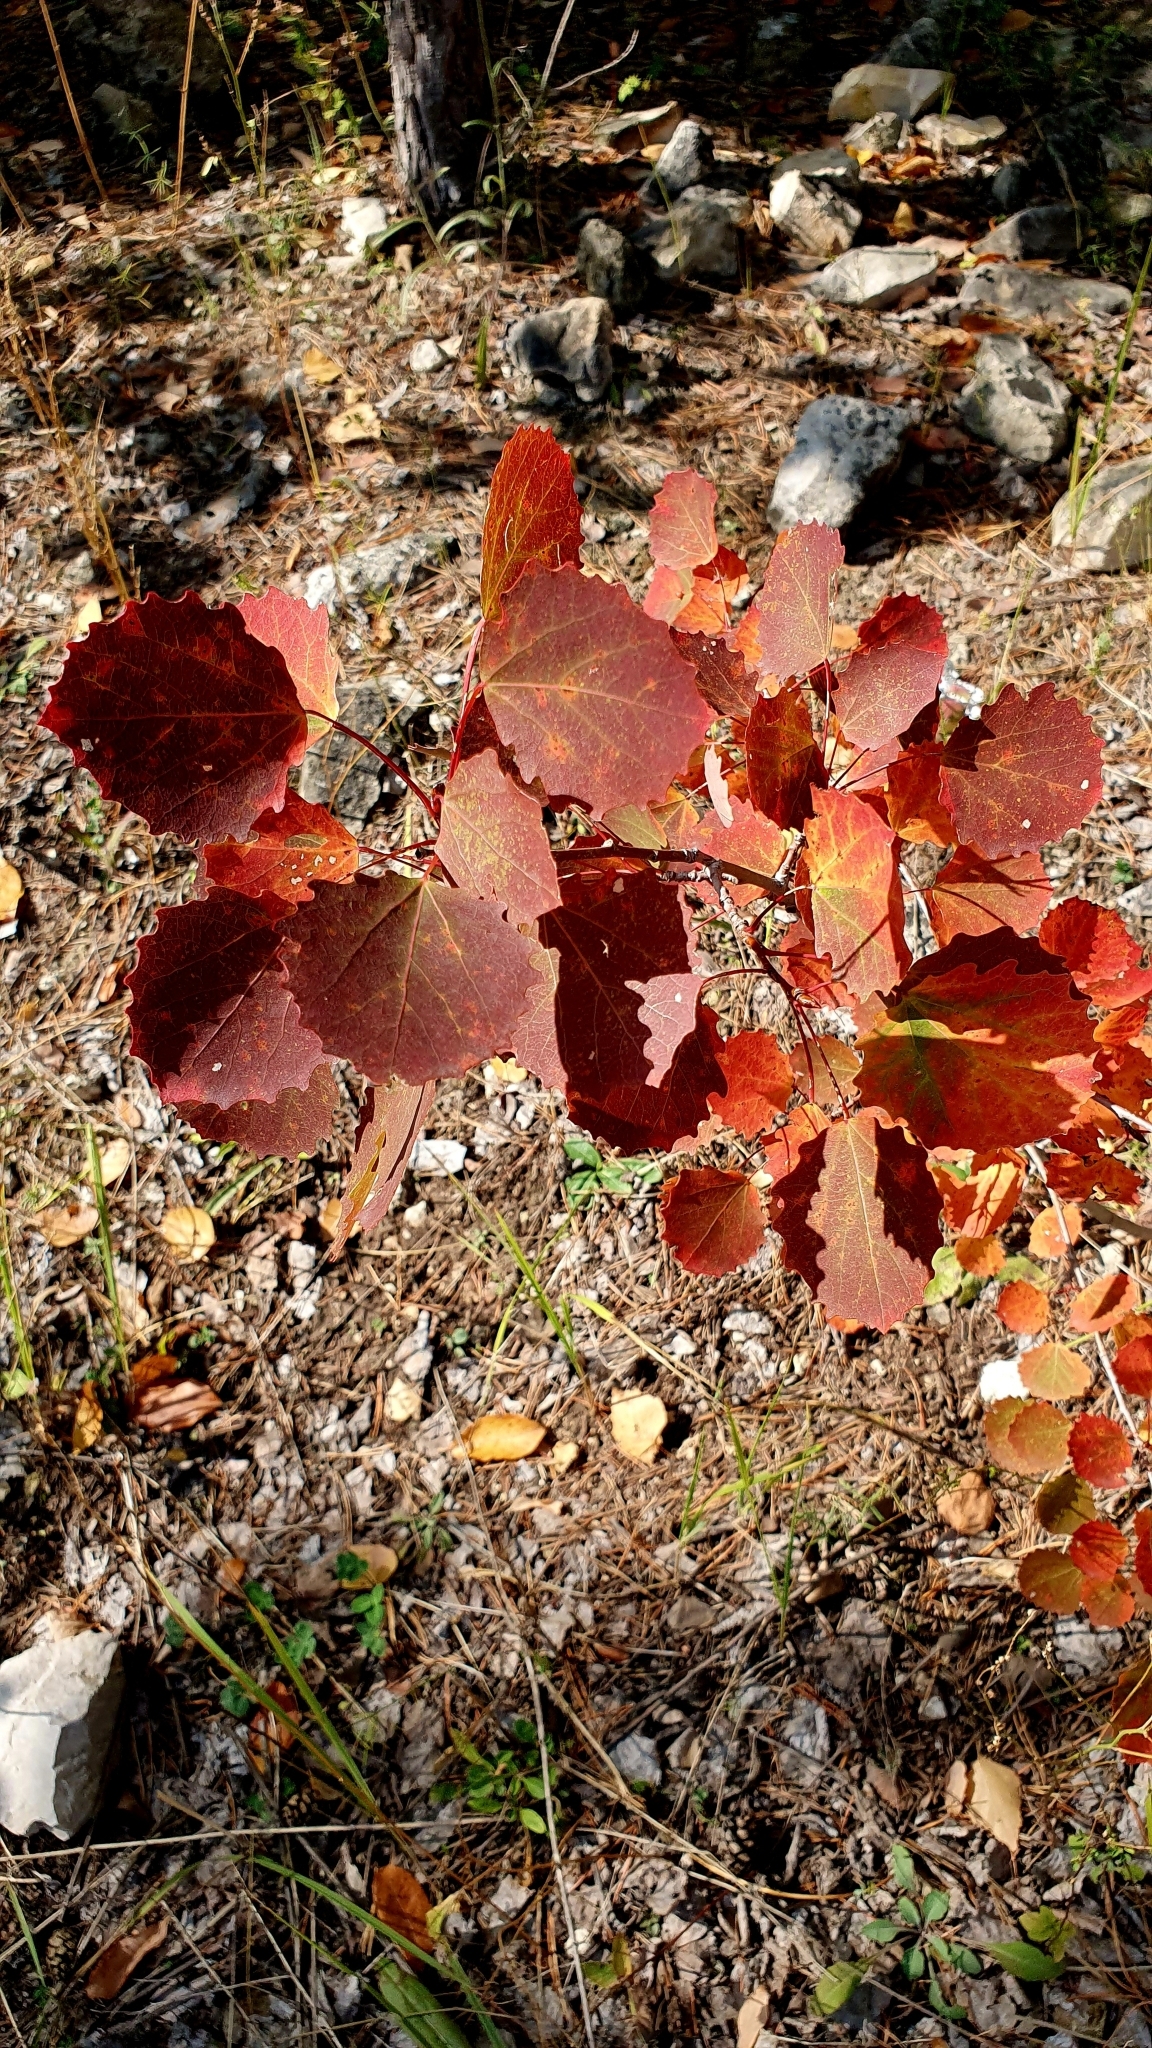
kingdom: Plantae
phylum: Tracheophyta
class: Magnoliopsida
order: Malpighiales
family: Salicaceae
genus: Populus
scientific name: Populus tremula
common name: European aspen
